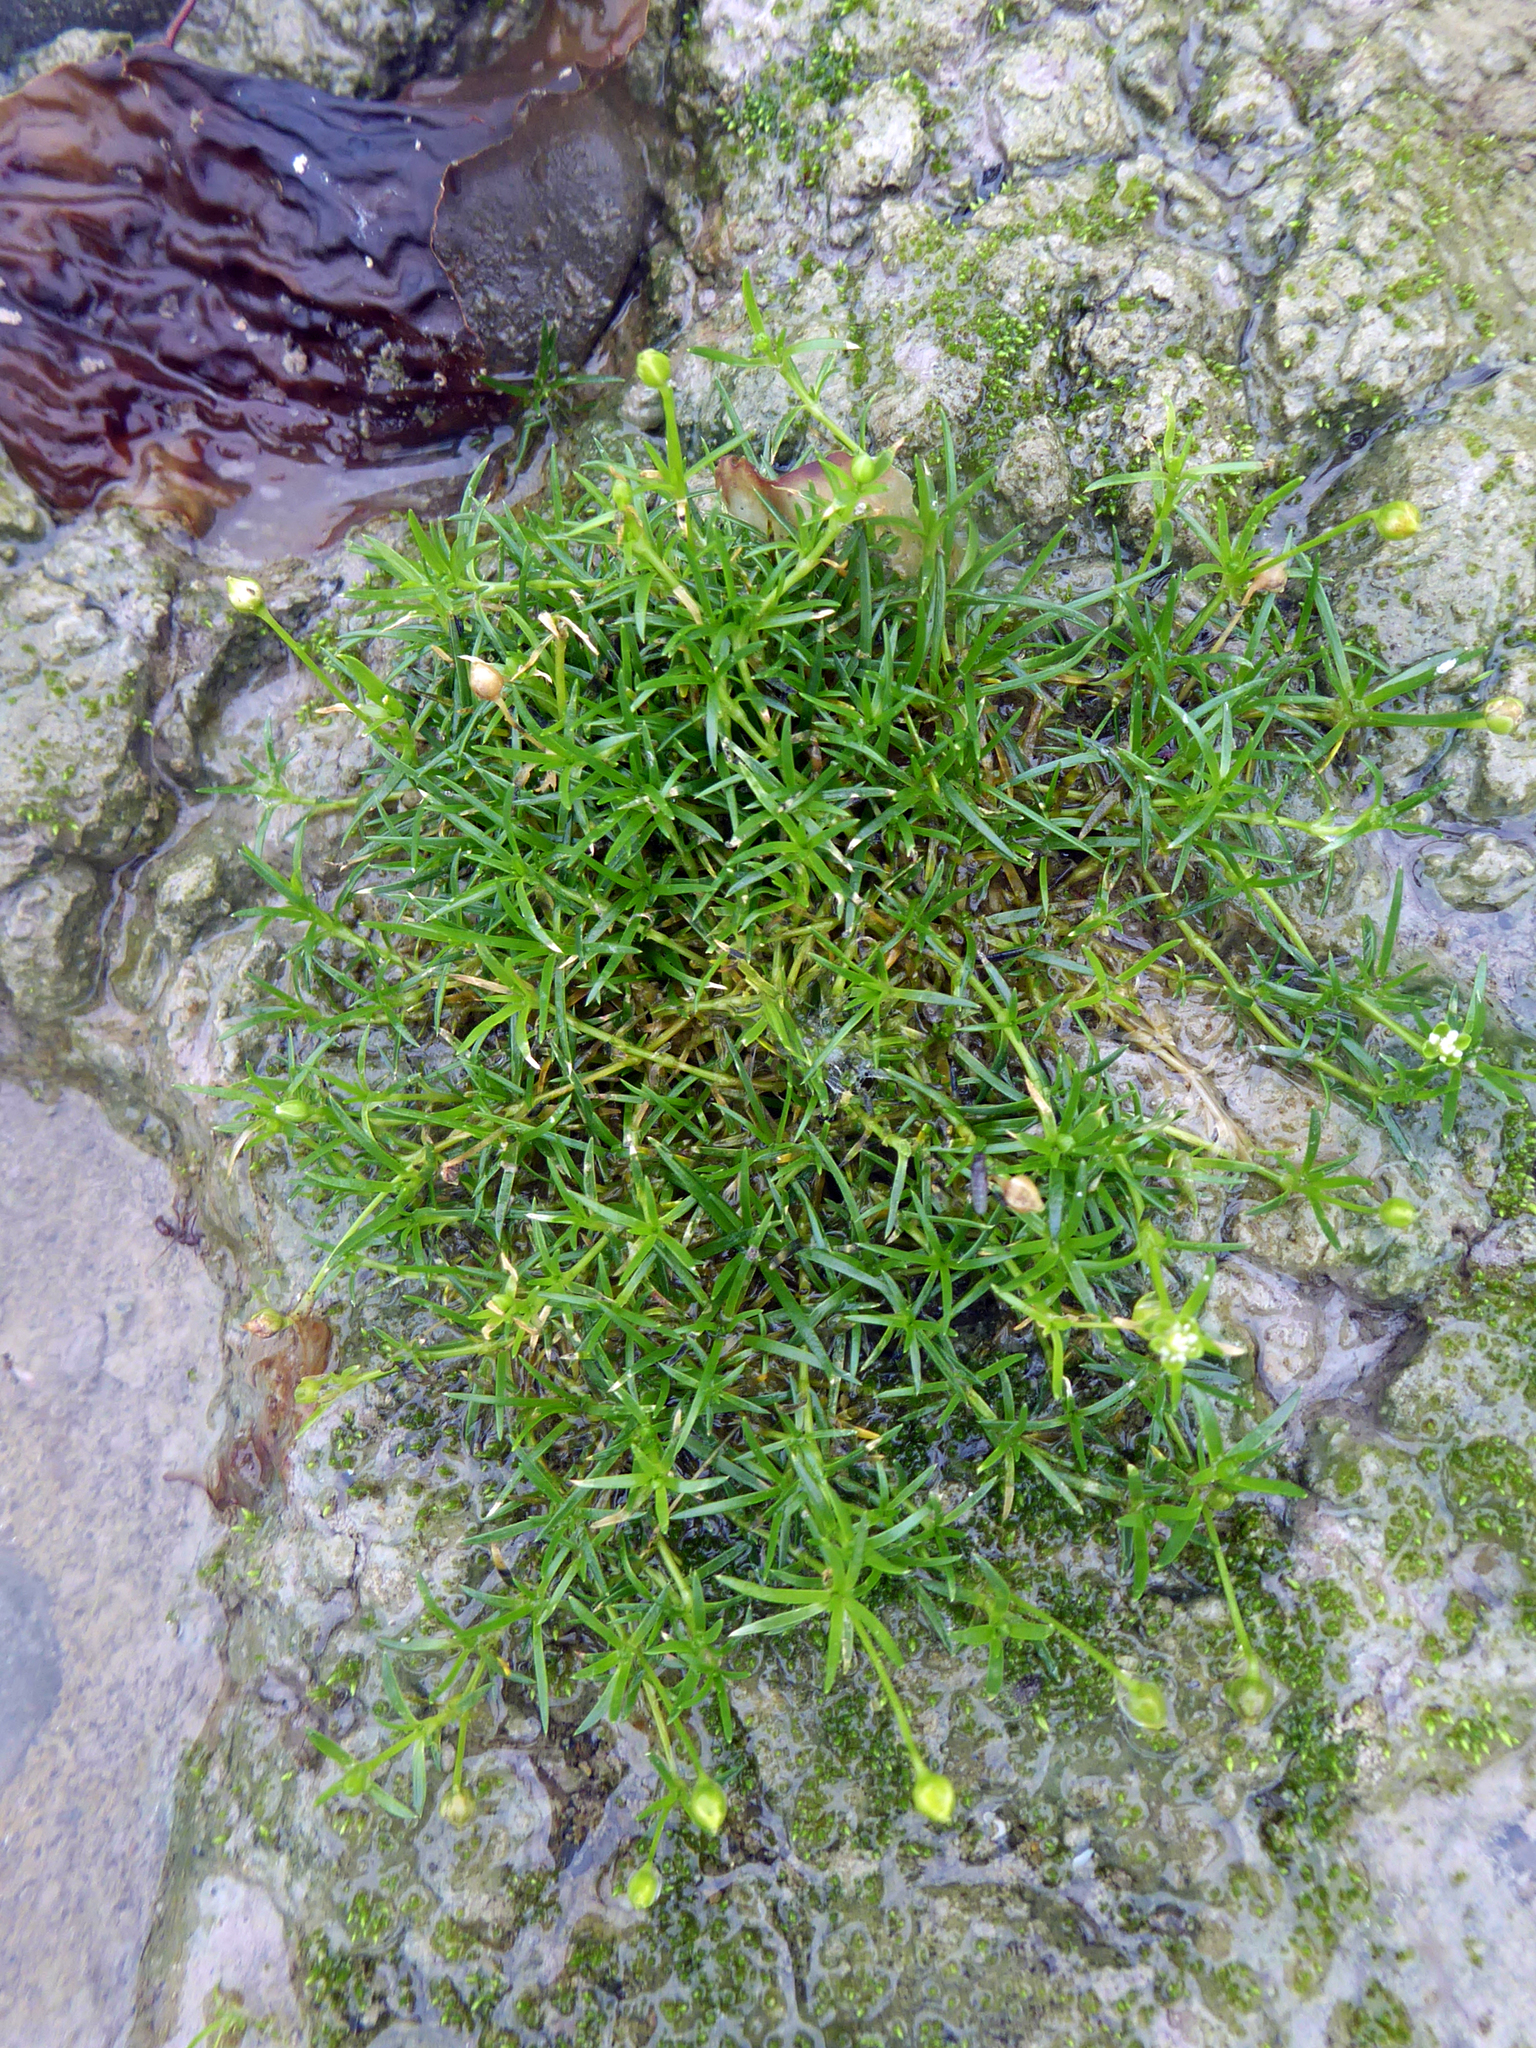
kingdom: Plantae
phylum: Tracheophyta
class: Magnoliopsida
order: Caryophyllales
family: Caryophyllaceae
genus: Sagina
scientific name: Sagina procumbens
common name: Procumbent pearlwort
